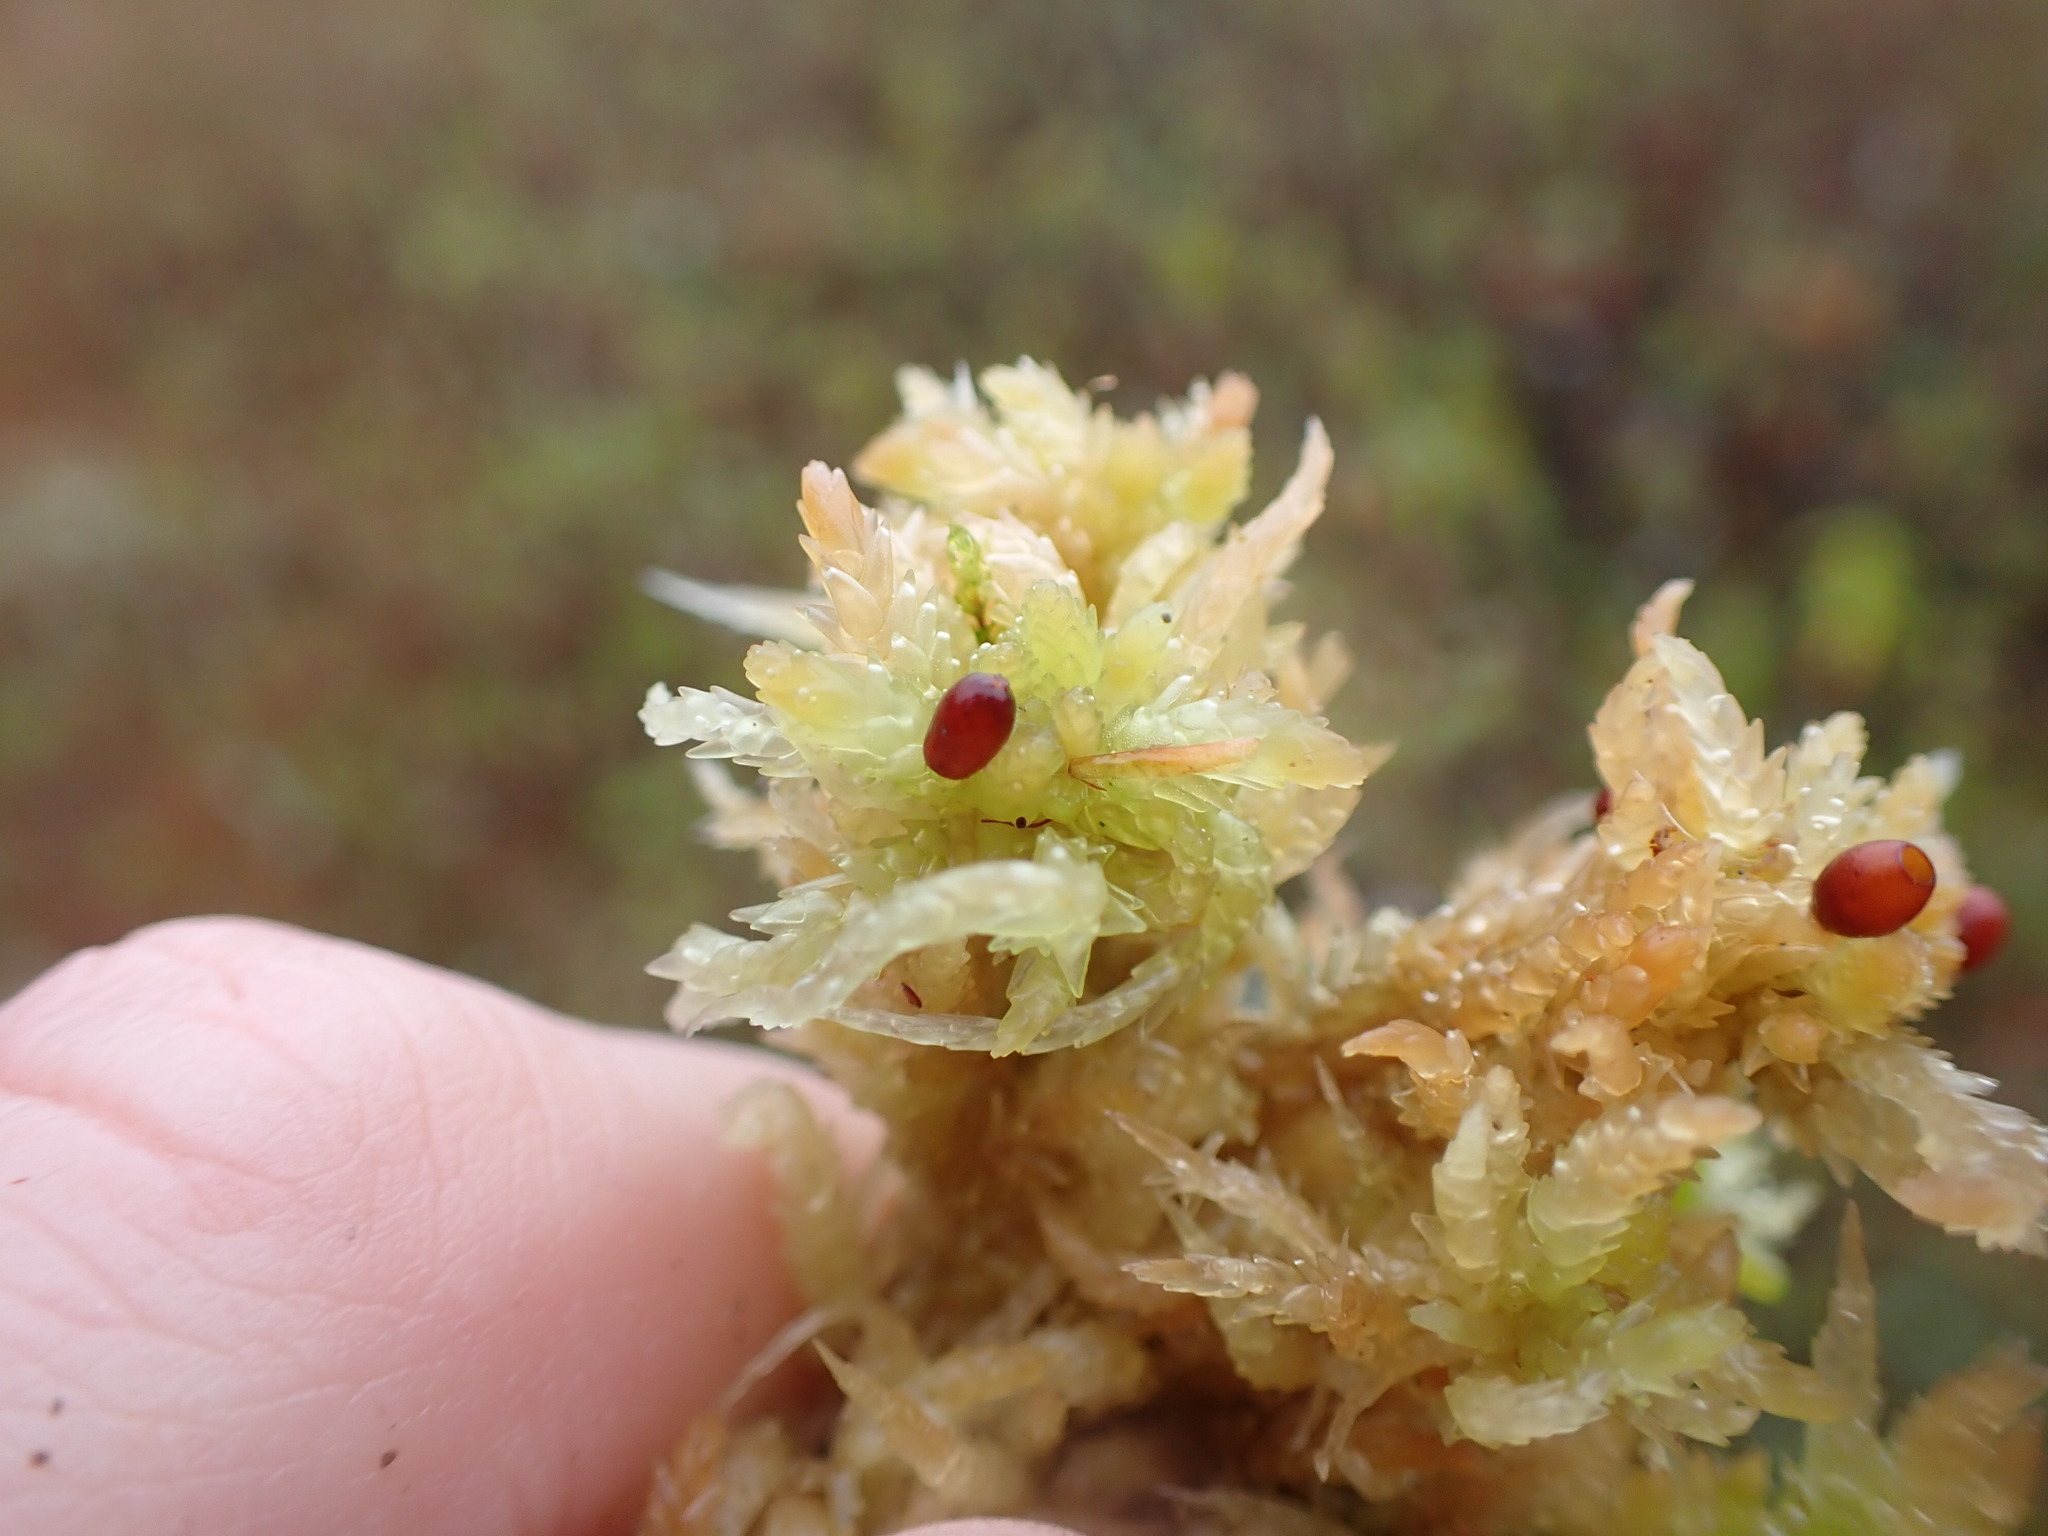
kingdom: Plantae
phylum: Bryophyta
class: Sphagnopsida
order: Sphagnales
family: Sphagnaceae
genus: Sphagnum
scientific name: Sphagnum palustre
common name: Blunt-leaved bog-moss
